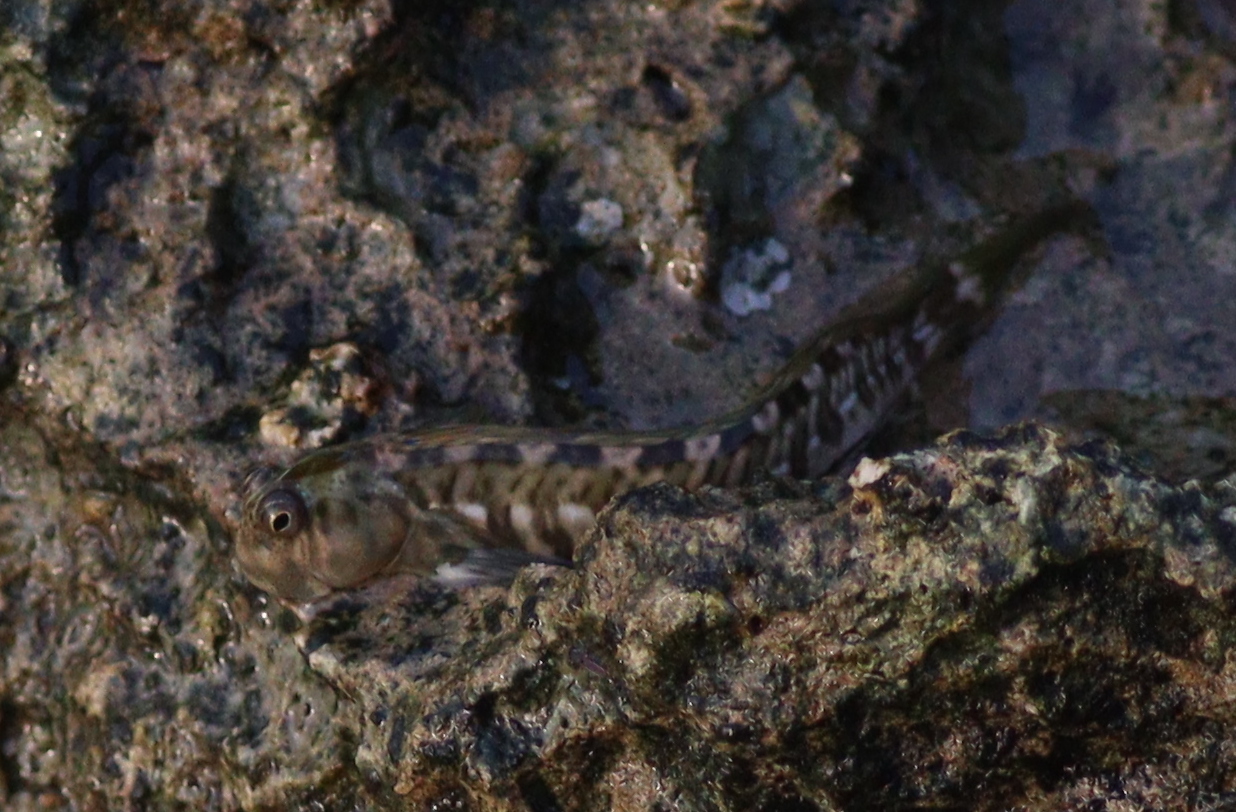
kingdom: Animalia
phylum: Chordata
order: Perciformes
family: Blenniidae
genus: Alticus
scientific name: Alticus magnusi
